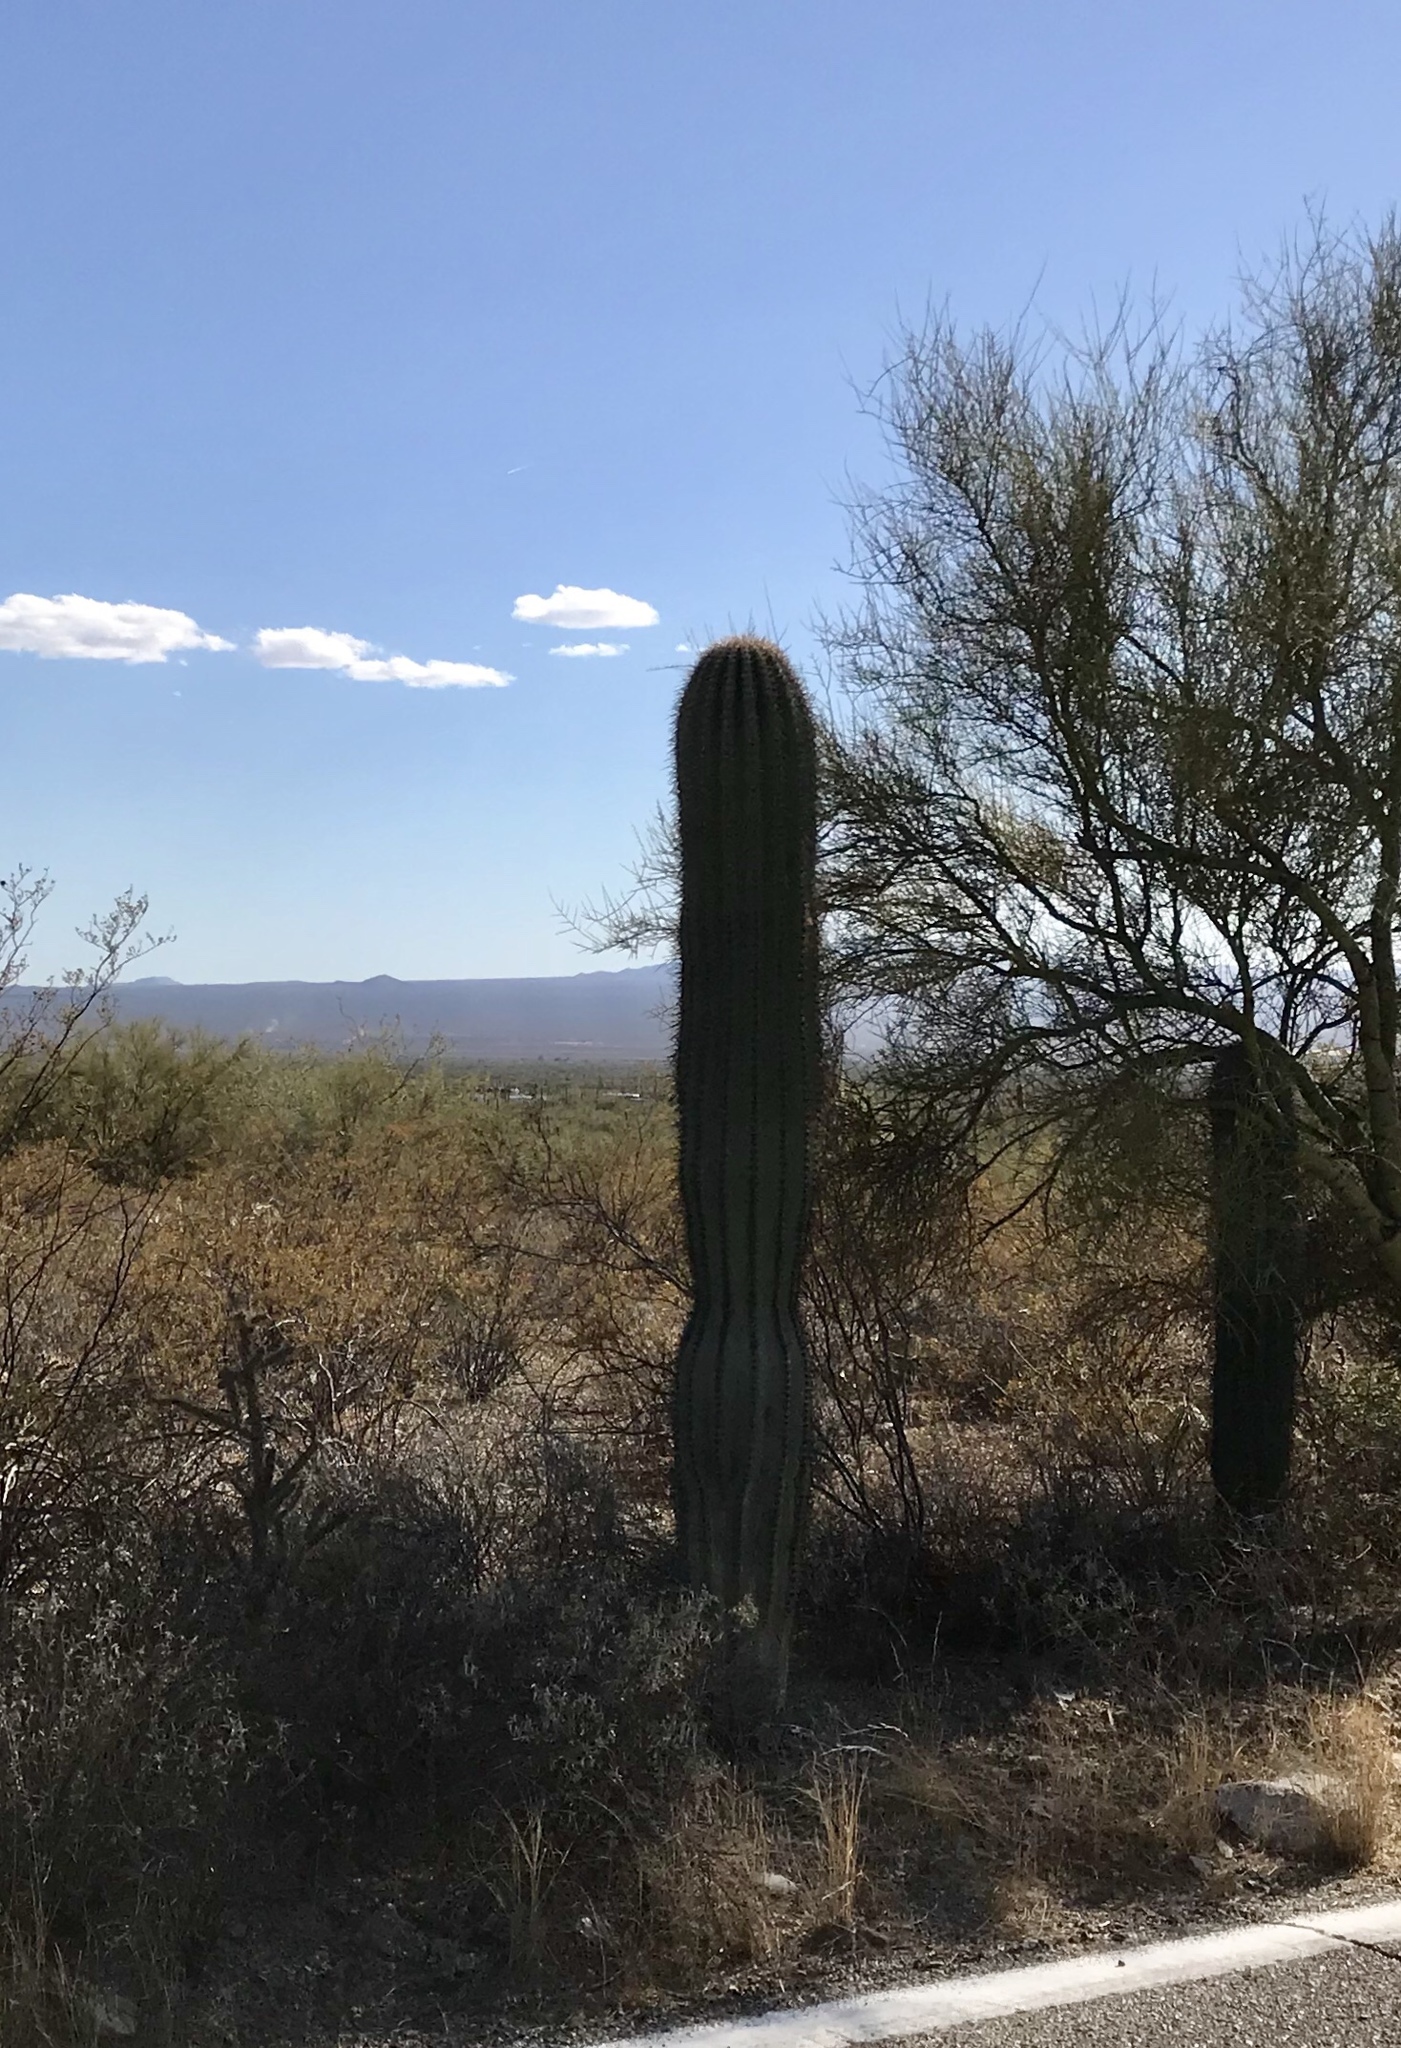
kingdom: Plantae
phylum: Tracheophyta
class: Magnoliopsida
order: Caryophyllales
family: Cactaceae
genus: Carnegiea
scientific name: Carnegiea gigantea
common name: Saguaro
